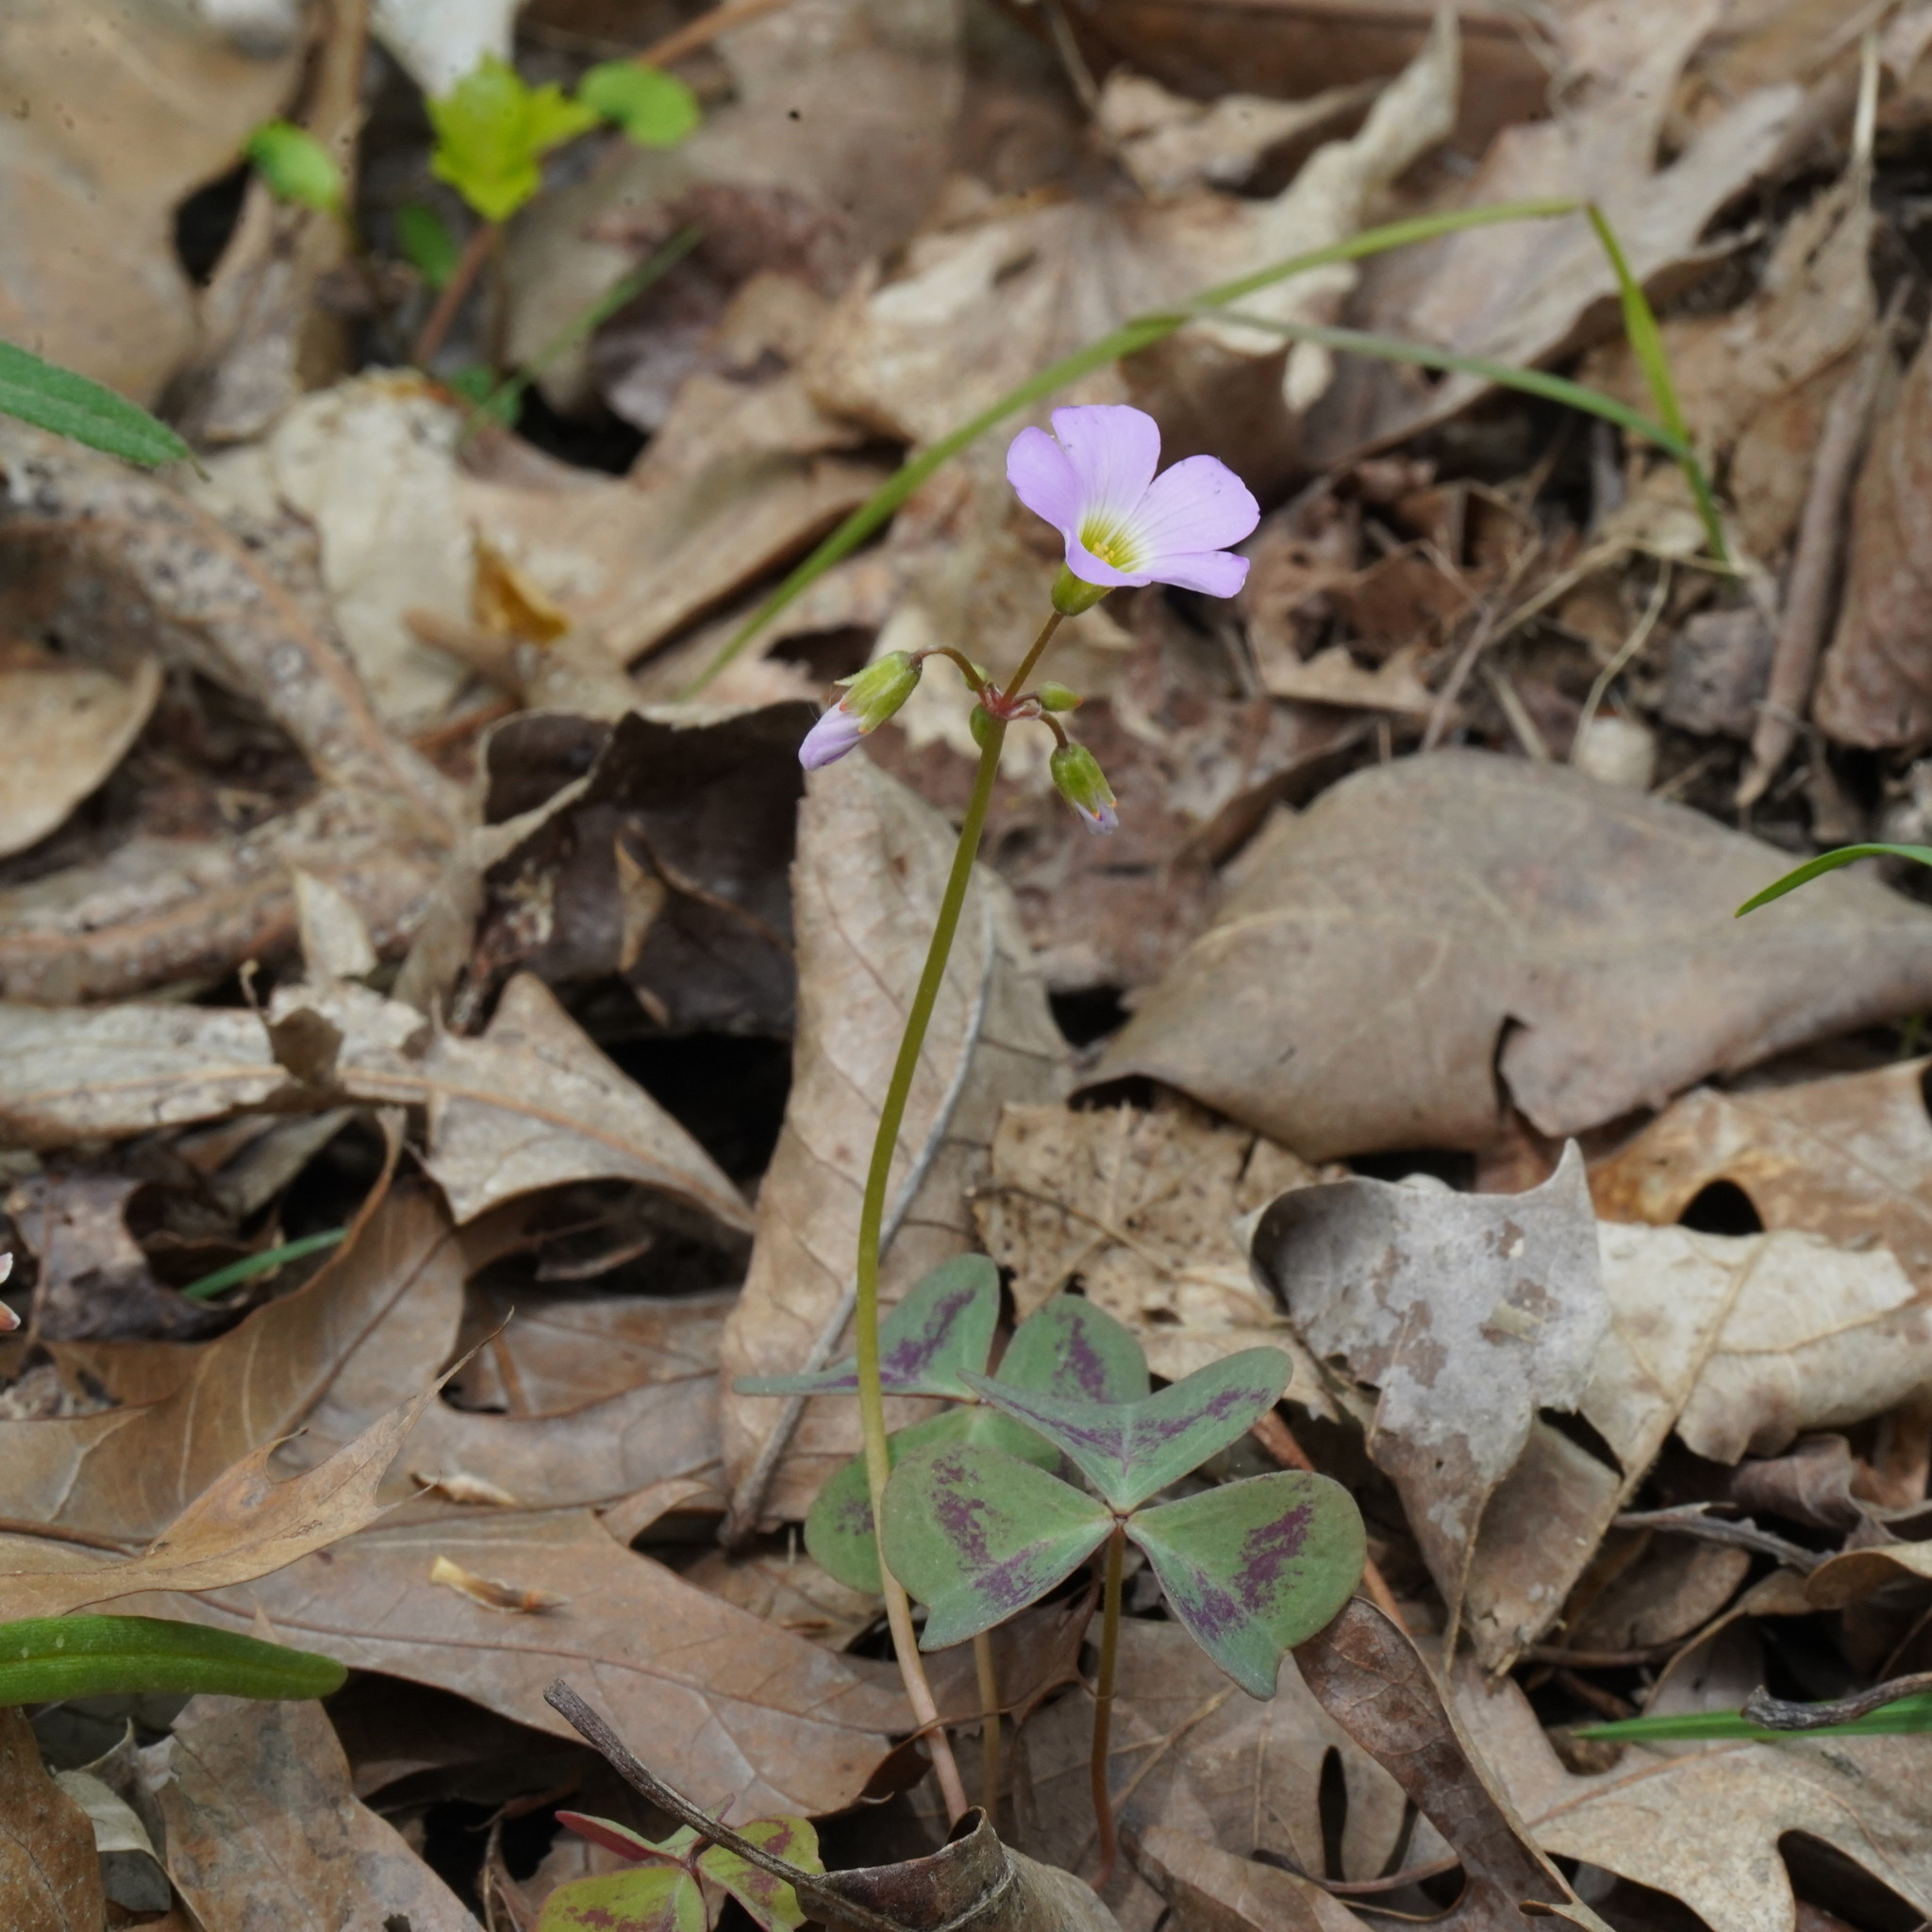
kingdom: Plantae
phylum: Tracheophyta
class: Magnoliopsida
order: Oxalidales
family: Oxalidaceae
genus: Oxalis
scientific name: Oxalis violacea
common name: Violet wood-sorrel
